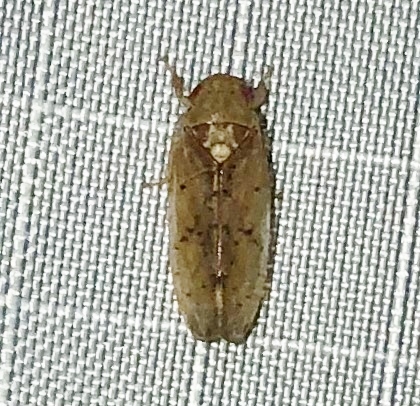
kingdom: Animalia
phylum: Arthropoda
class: Insecta
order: Hemiptera
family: Cicadellidae
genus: Ponana
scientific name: Ponana quadralaba
